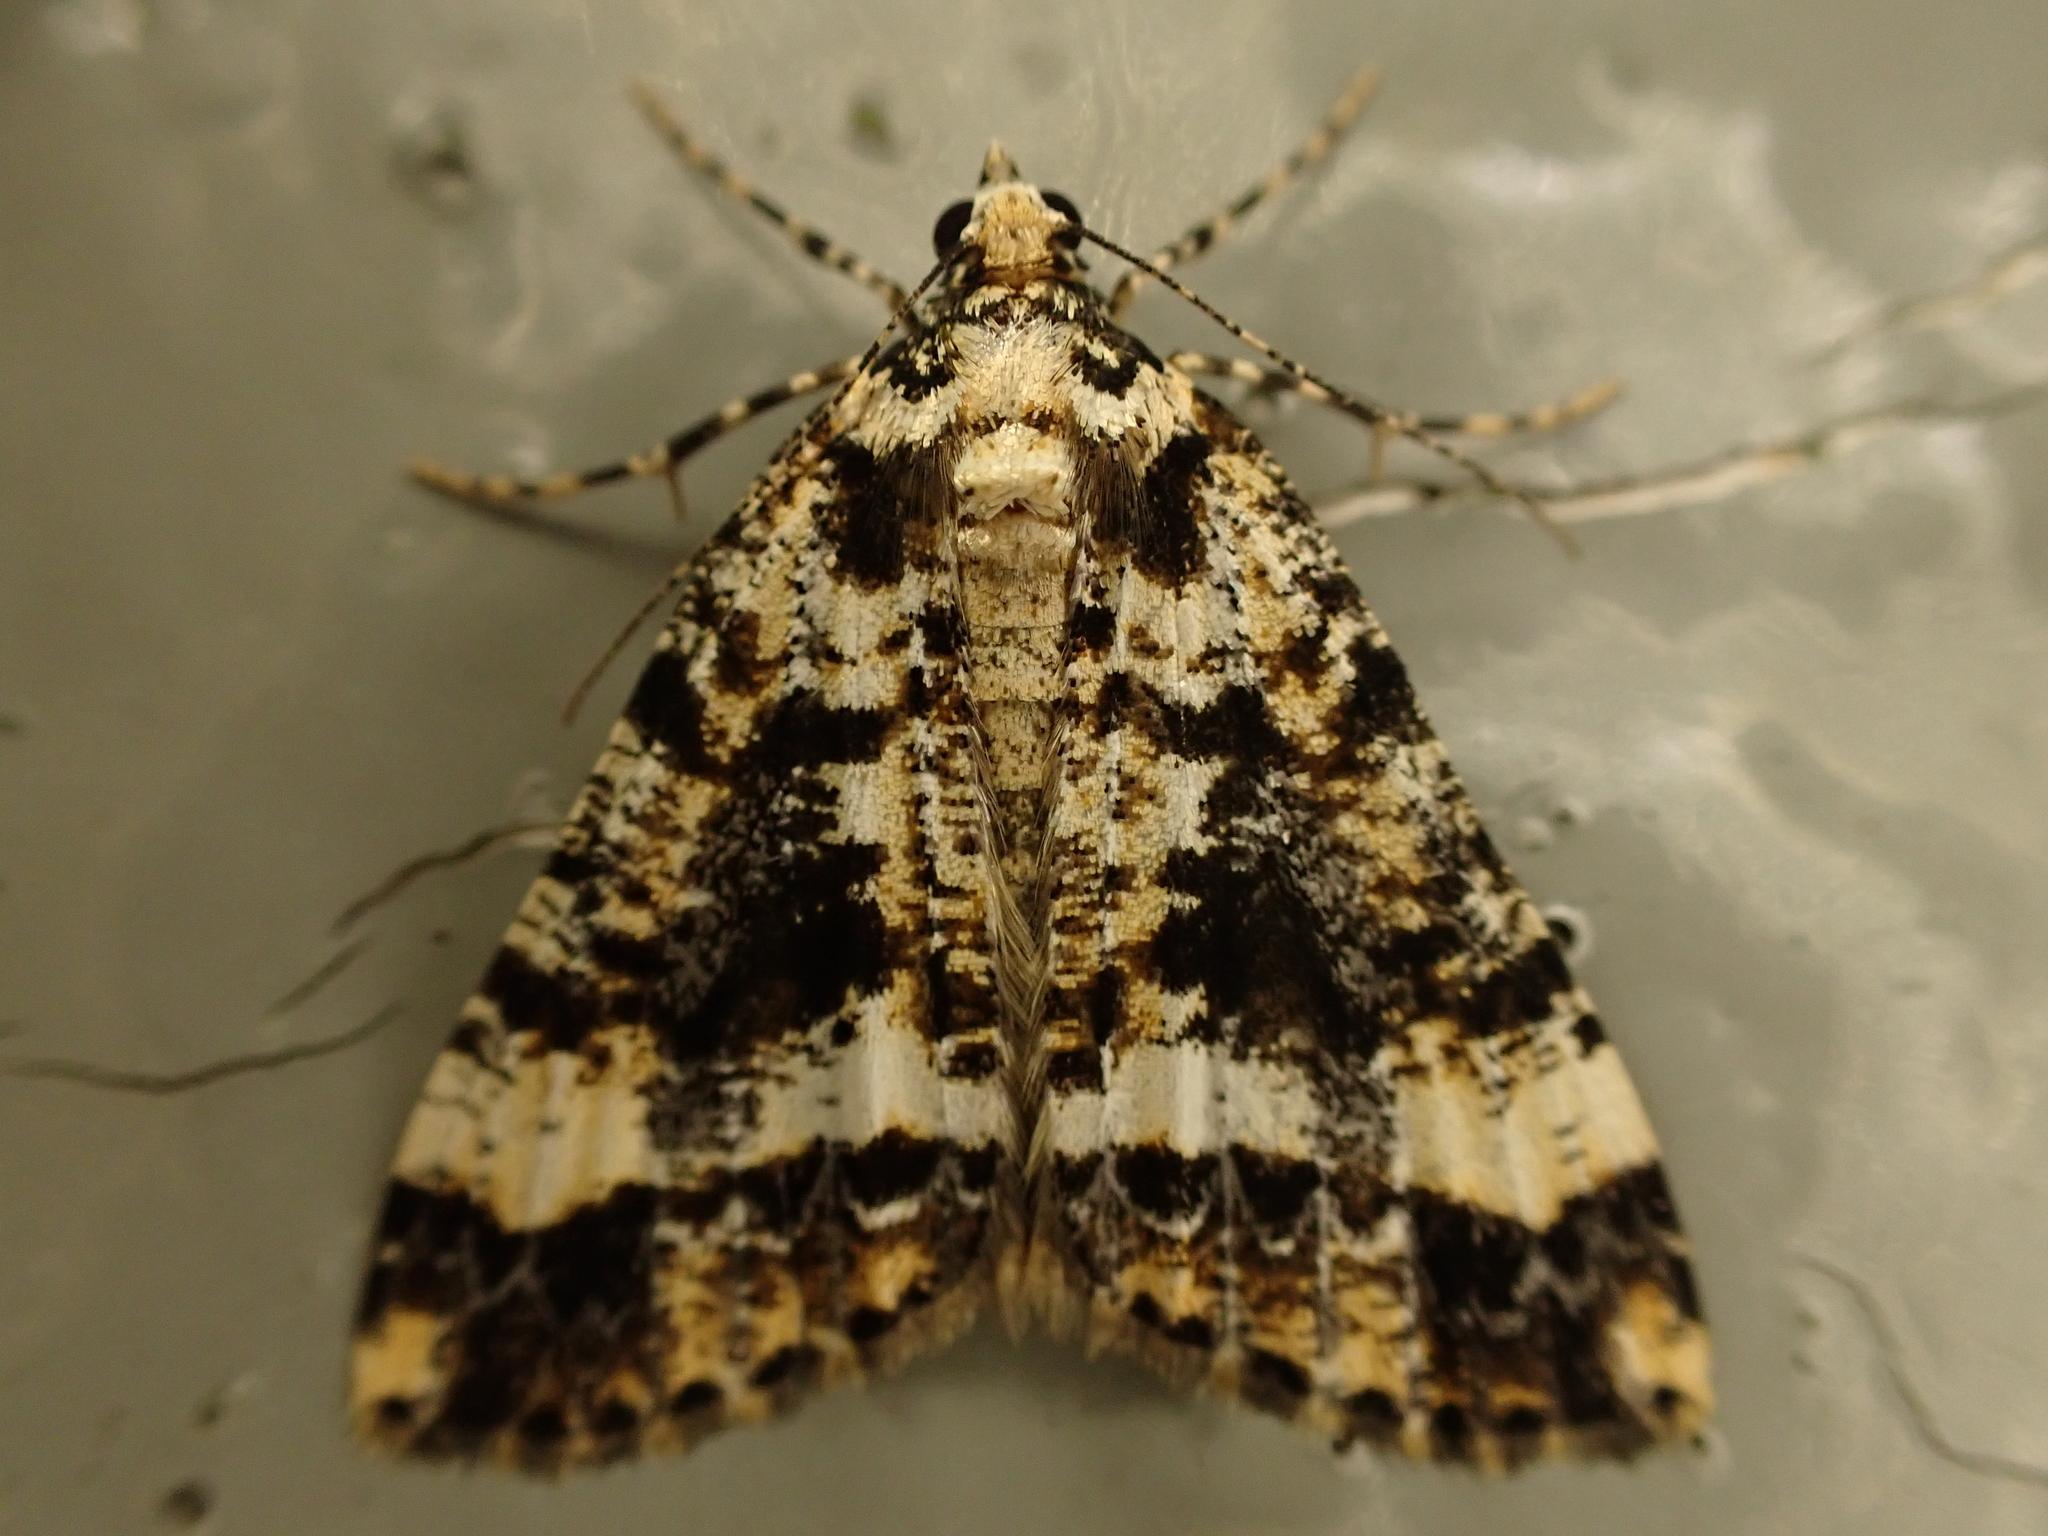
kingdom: Animalia
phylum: Arthropoda
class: Insecta
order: Lepidoptera
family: Geometridae
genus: Pseudocoremia
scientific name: Pseudocoremia leucelaea
